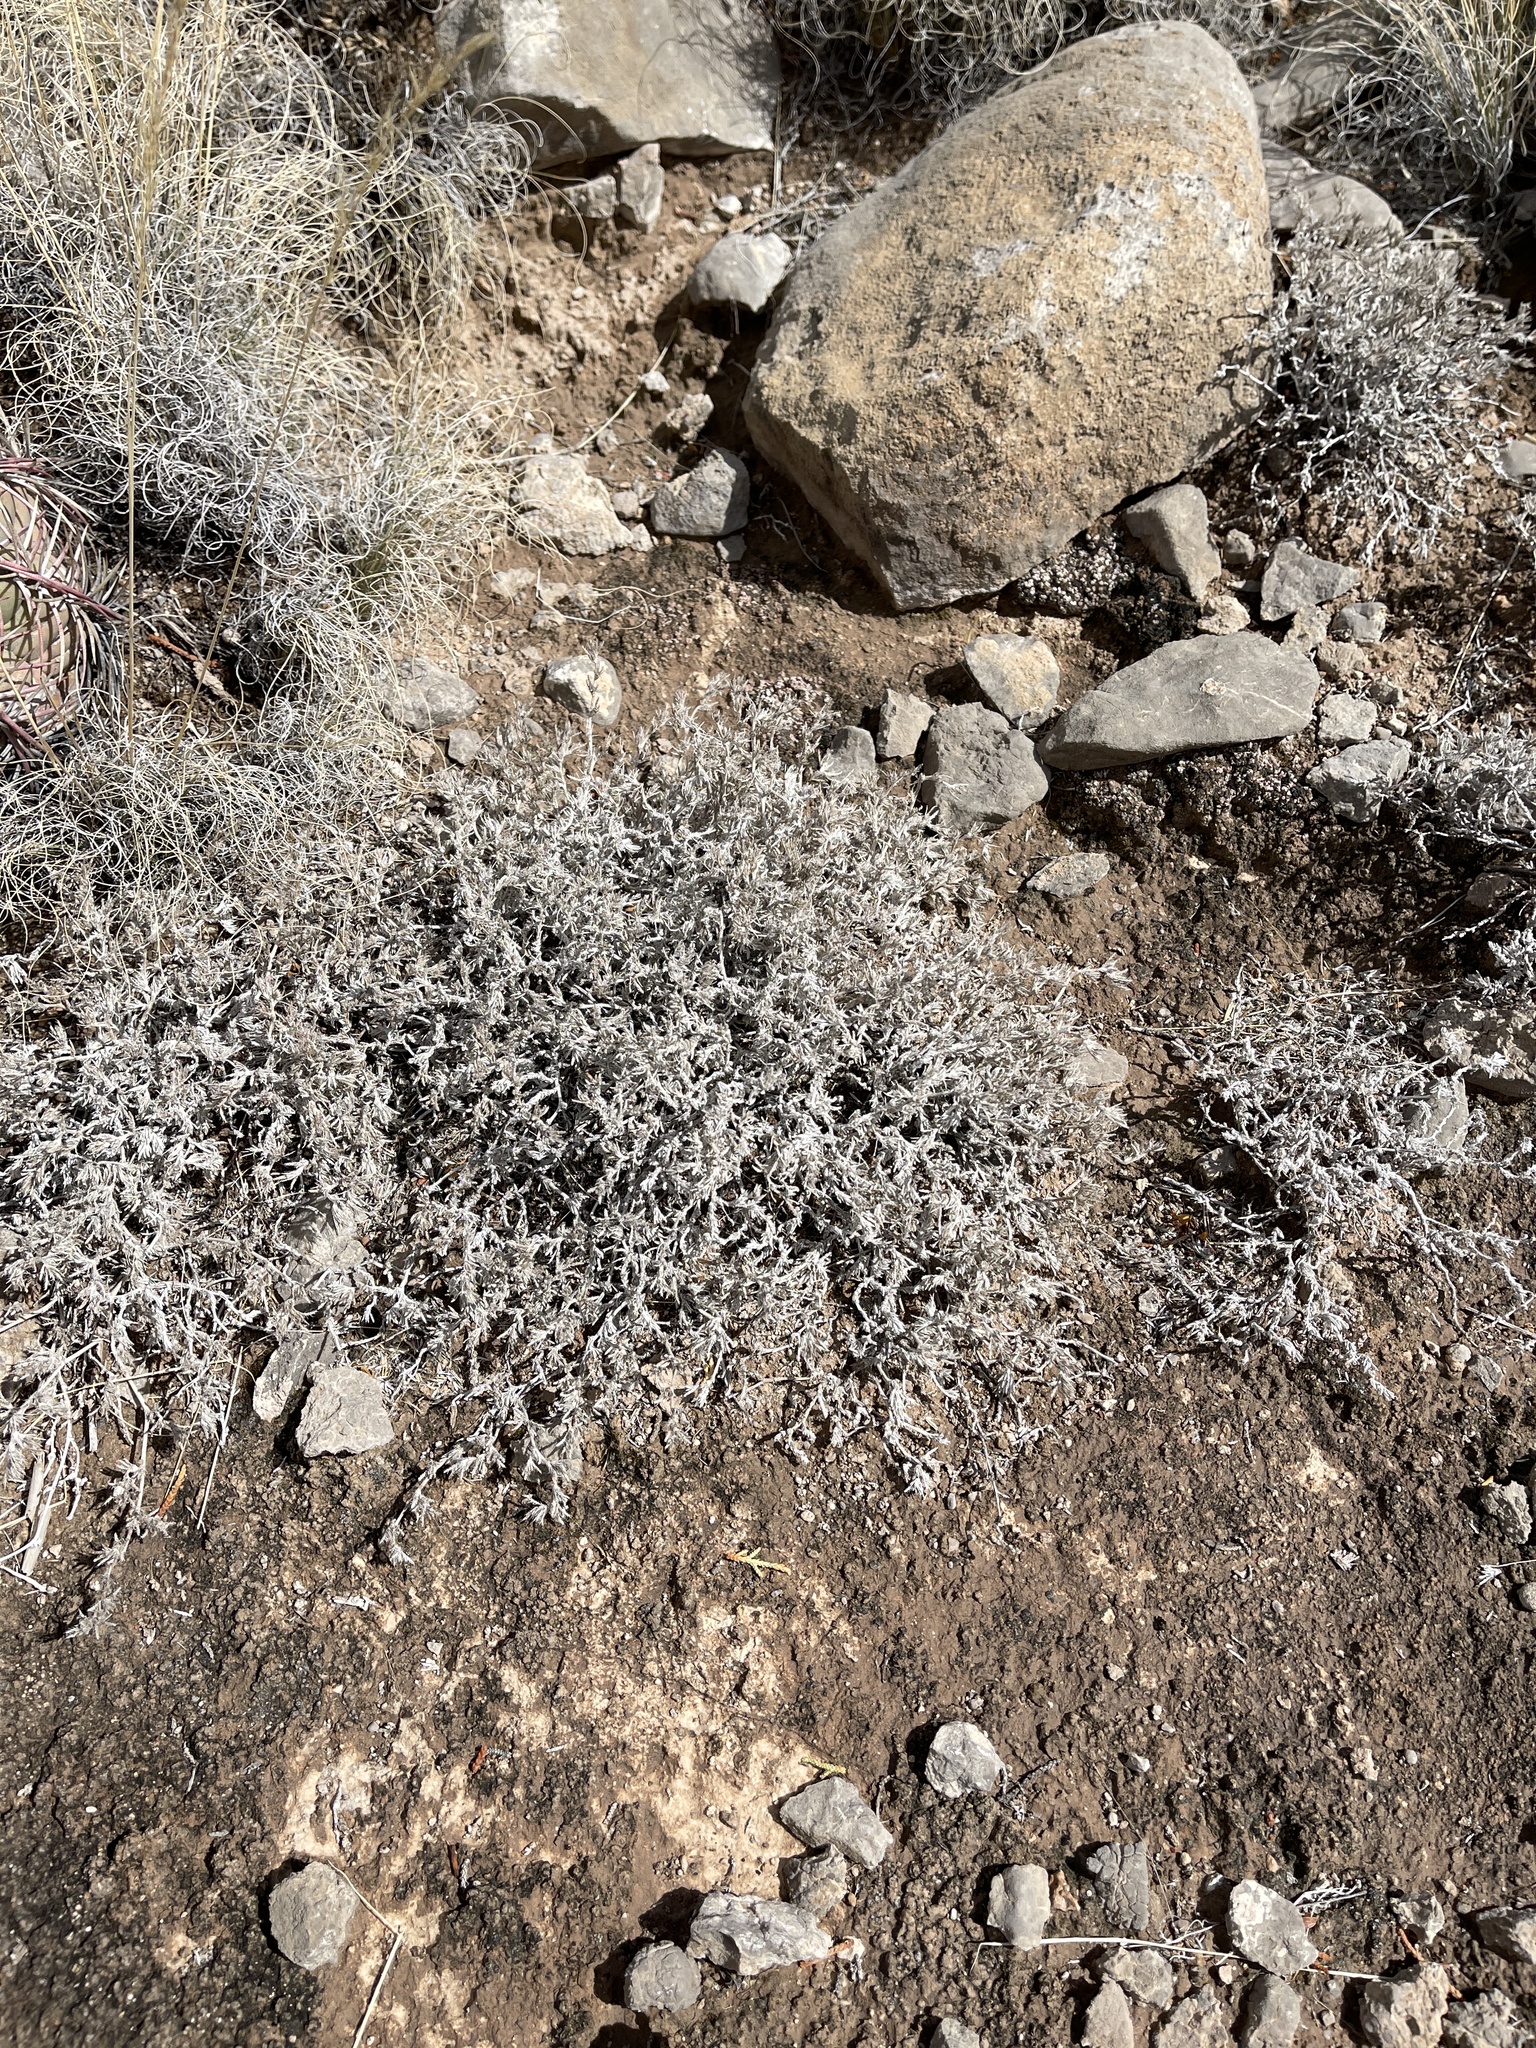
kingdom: Plantae
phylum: Tracheophyta
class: Magnoliopsida
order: Boraginales
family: Ehretiaceae
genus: Tiquilia
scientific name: Tiquilia greggii
